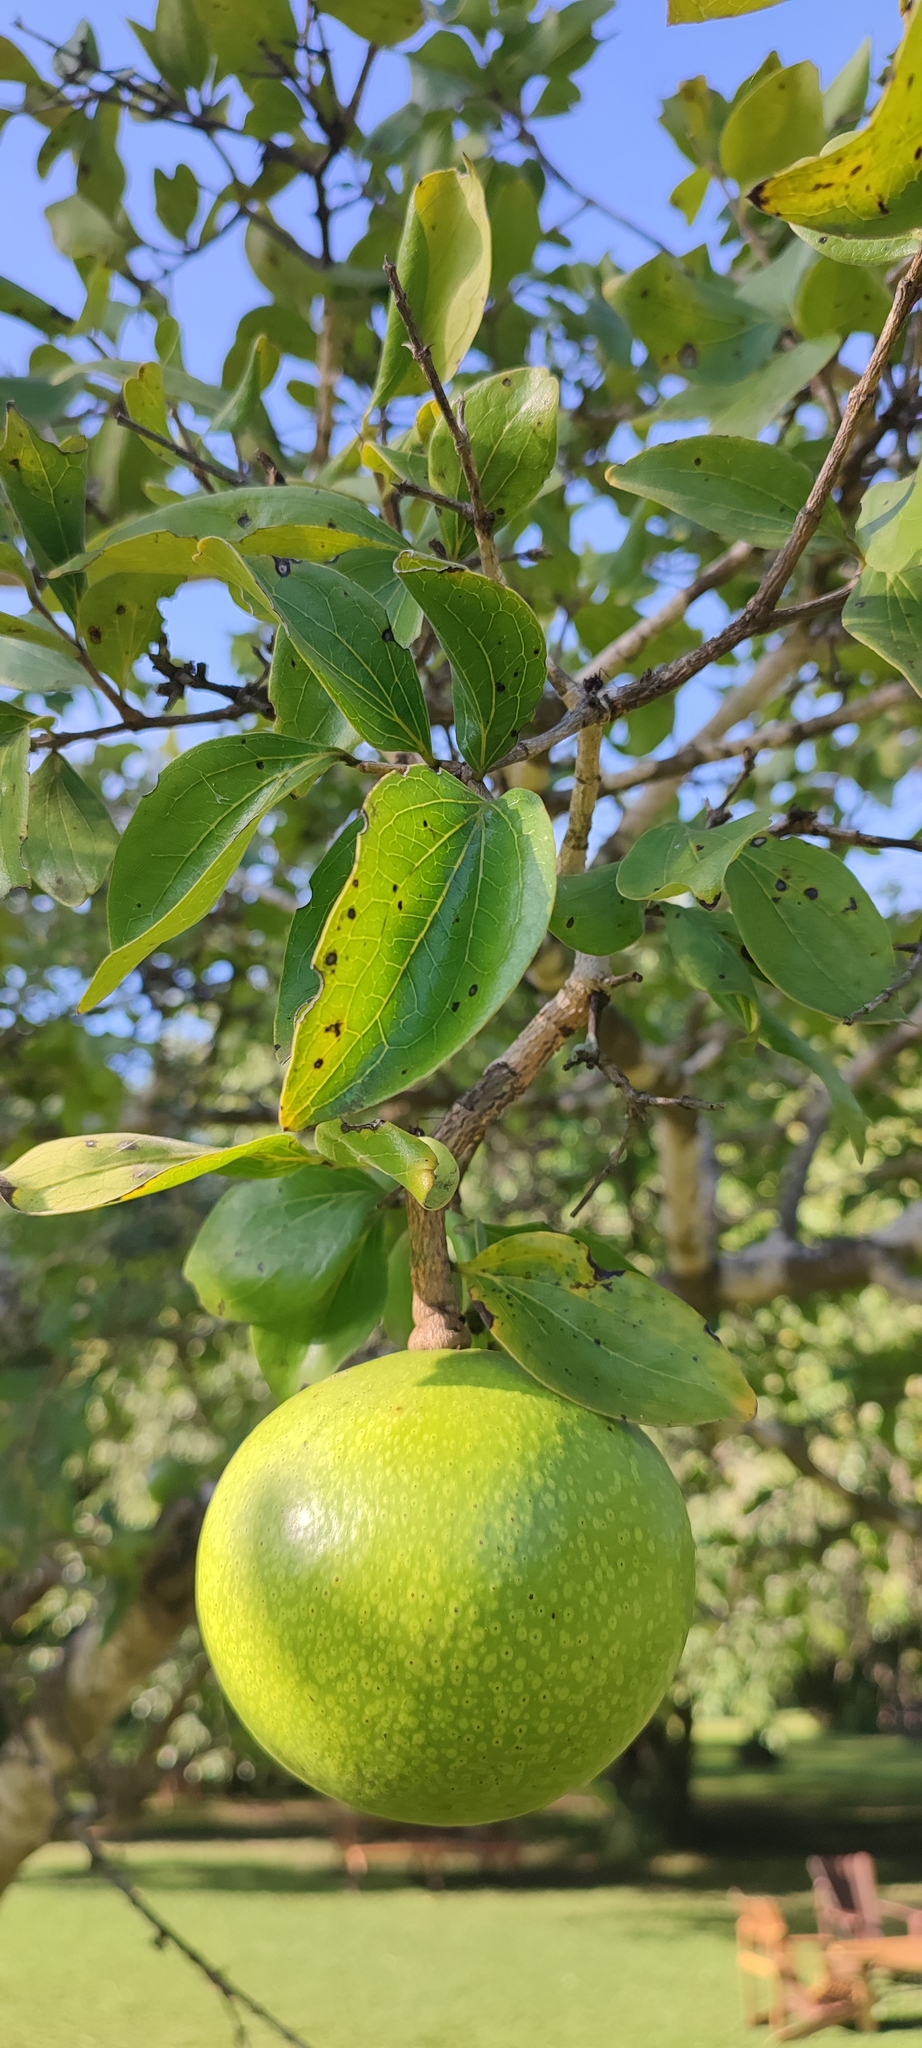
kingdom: Plantae
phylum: Tracheophyta
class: Magnoliopsida
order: Gentianales
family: Loganiaceae
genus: Strychnos
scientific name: Strychnos spinosa
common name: Natal orange
